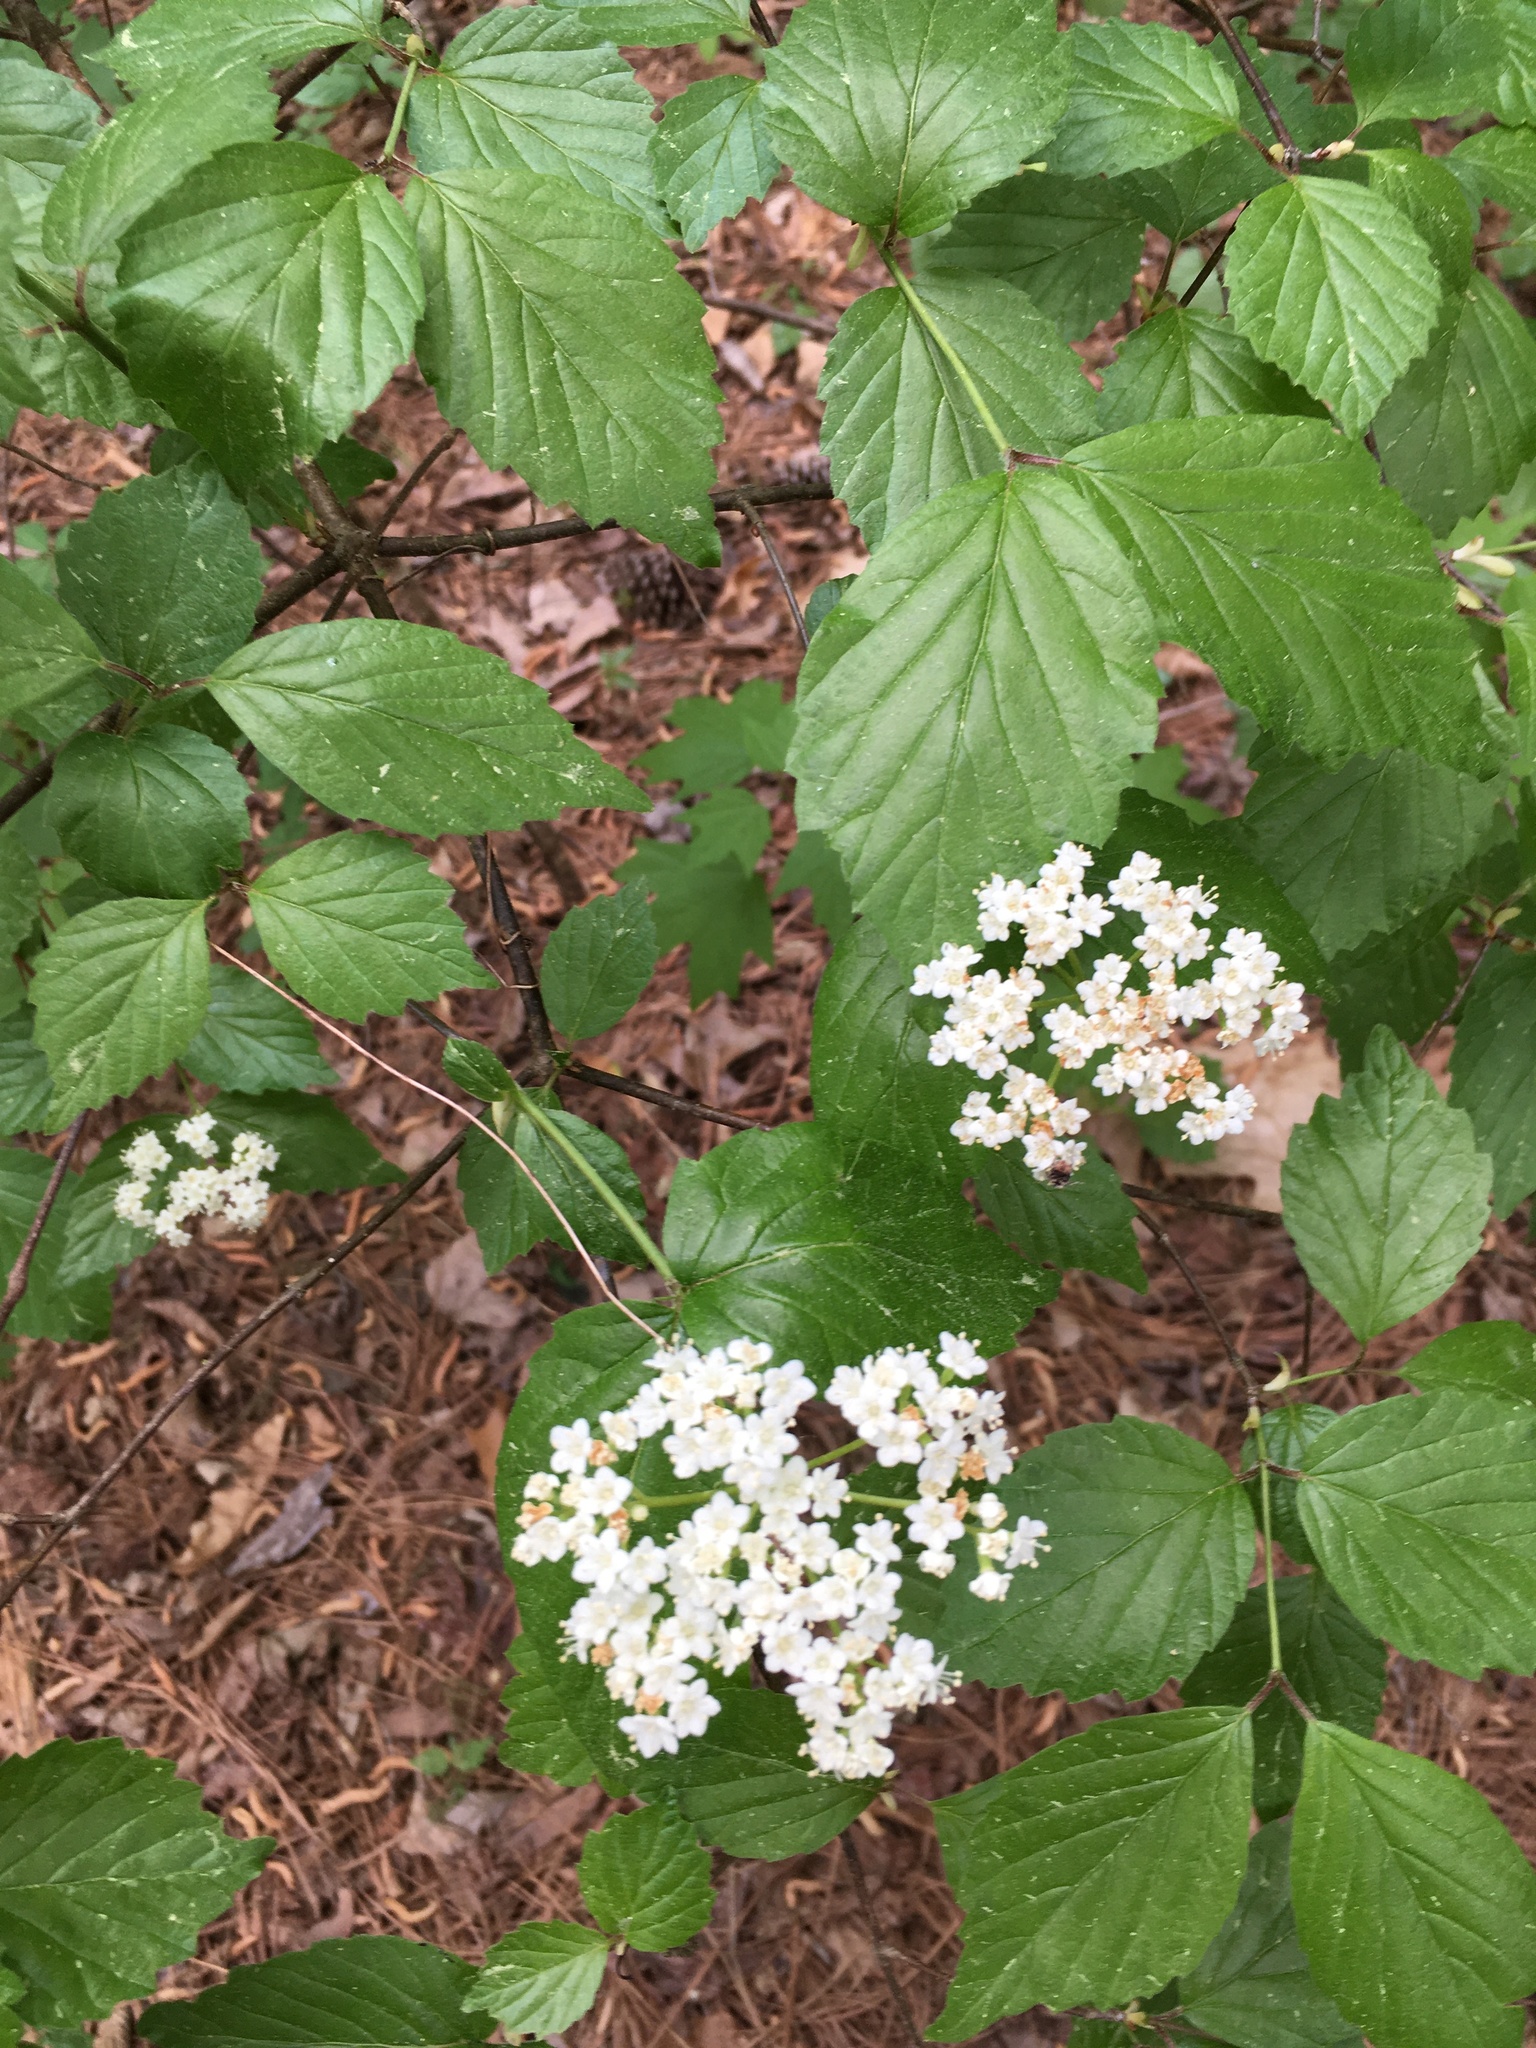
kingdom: Plantae
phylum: Tracheophyta
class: Magnoliopsida
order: Dipsacales
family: Viburnaceae
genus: Viburnum
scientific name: Viburnum rafinesqueanum
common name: Downy arrow-wood
